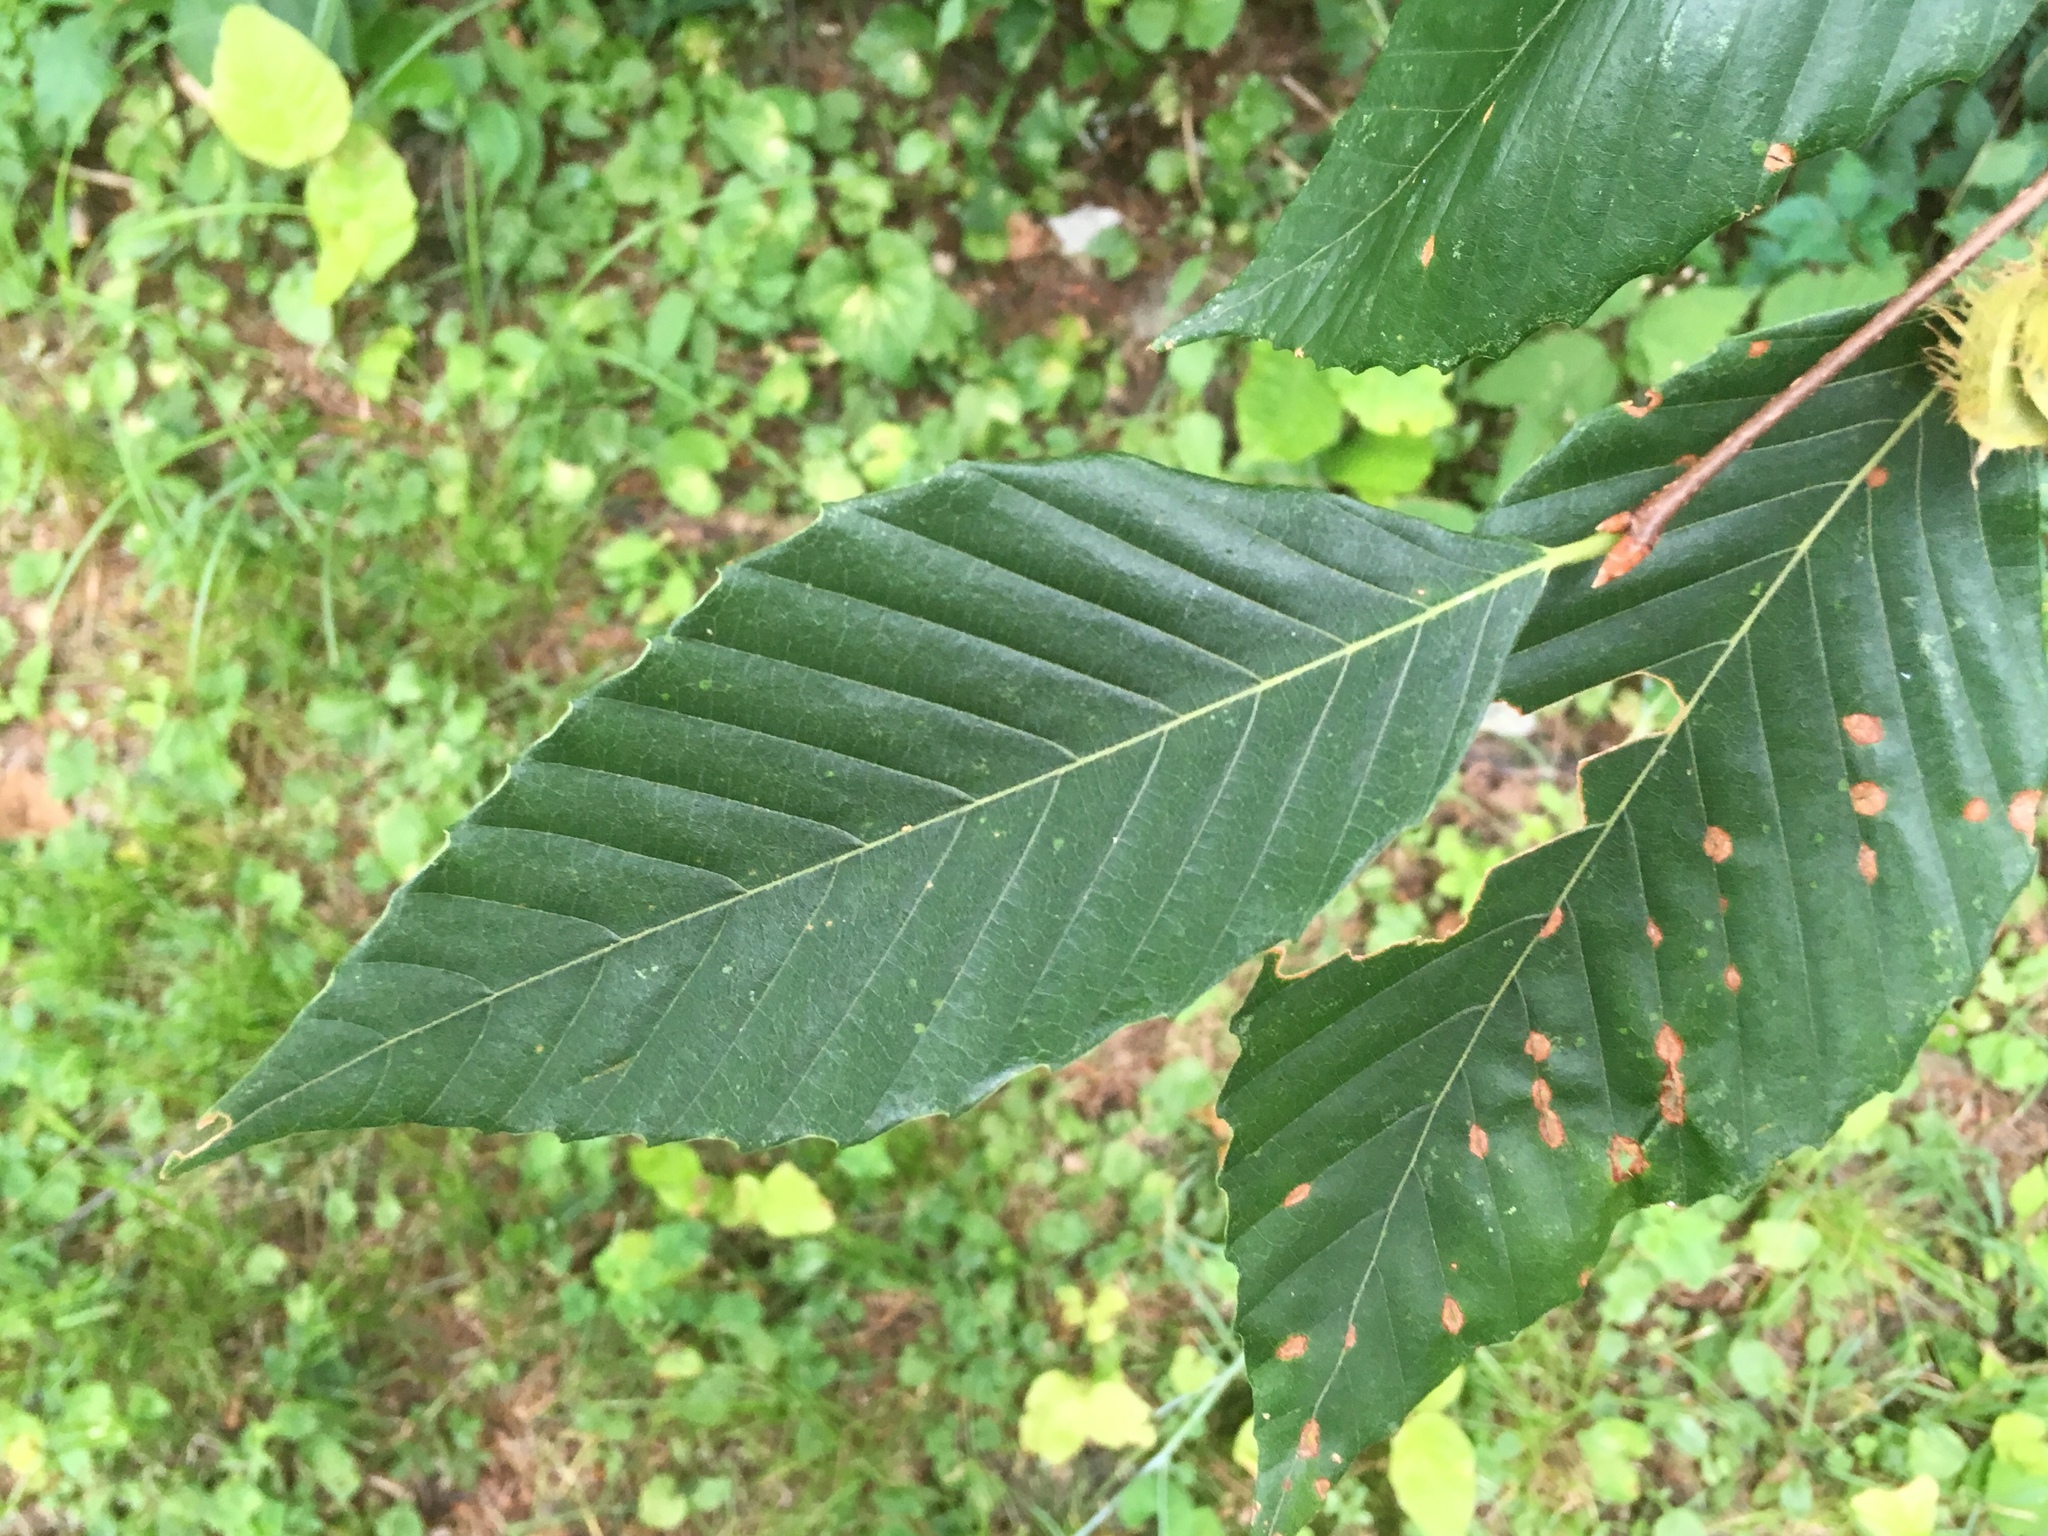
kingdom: Plantae
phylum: Tracheophyta
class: Magnoliopsida
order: Fagales
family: Fagaceae
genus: Fagus
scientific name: Fagus grandifolia
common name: American beech
